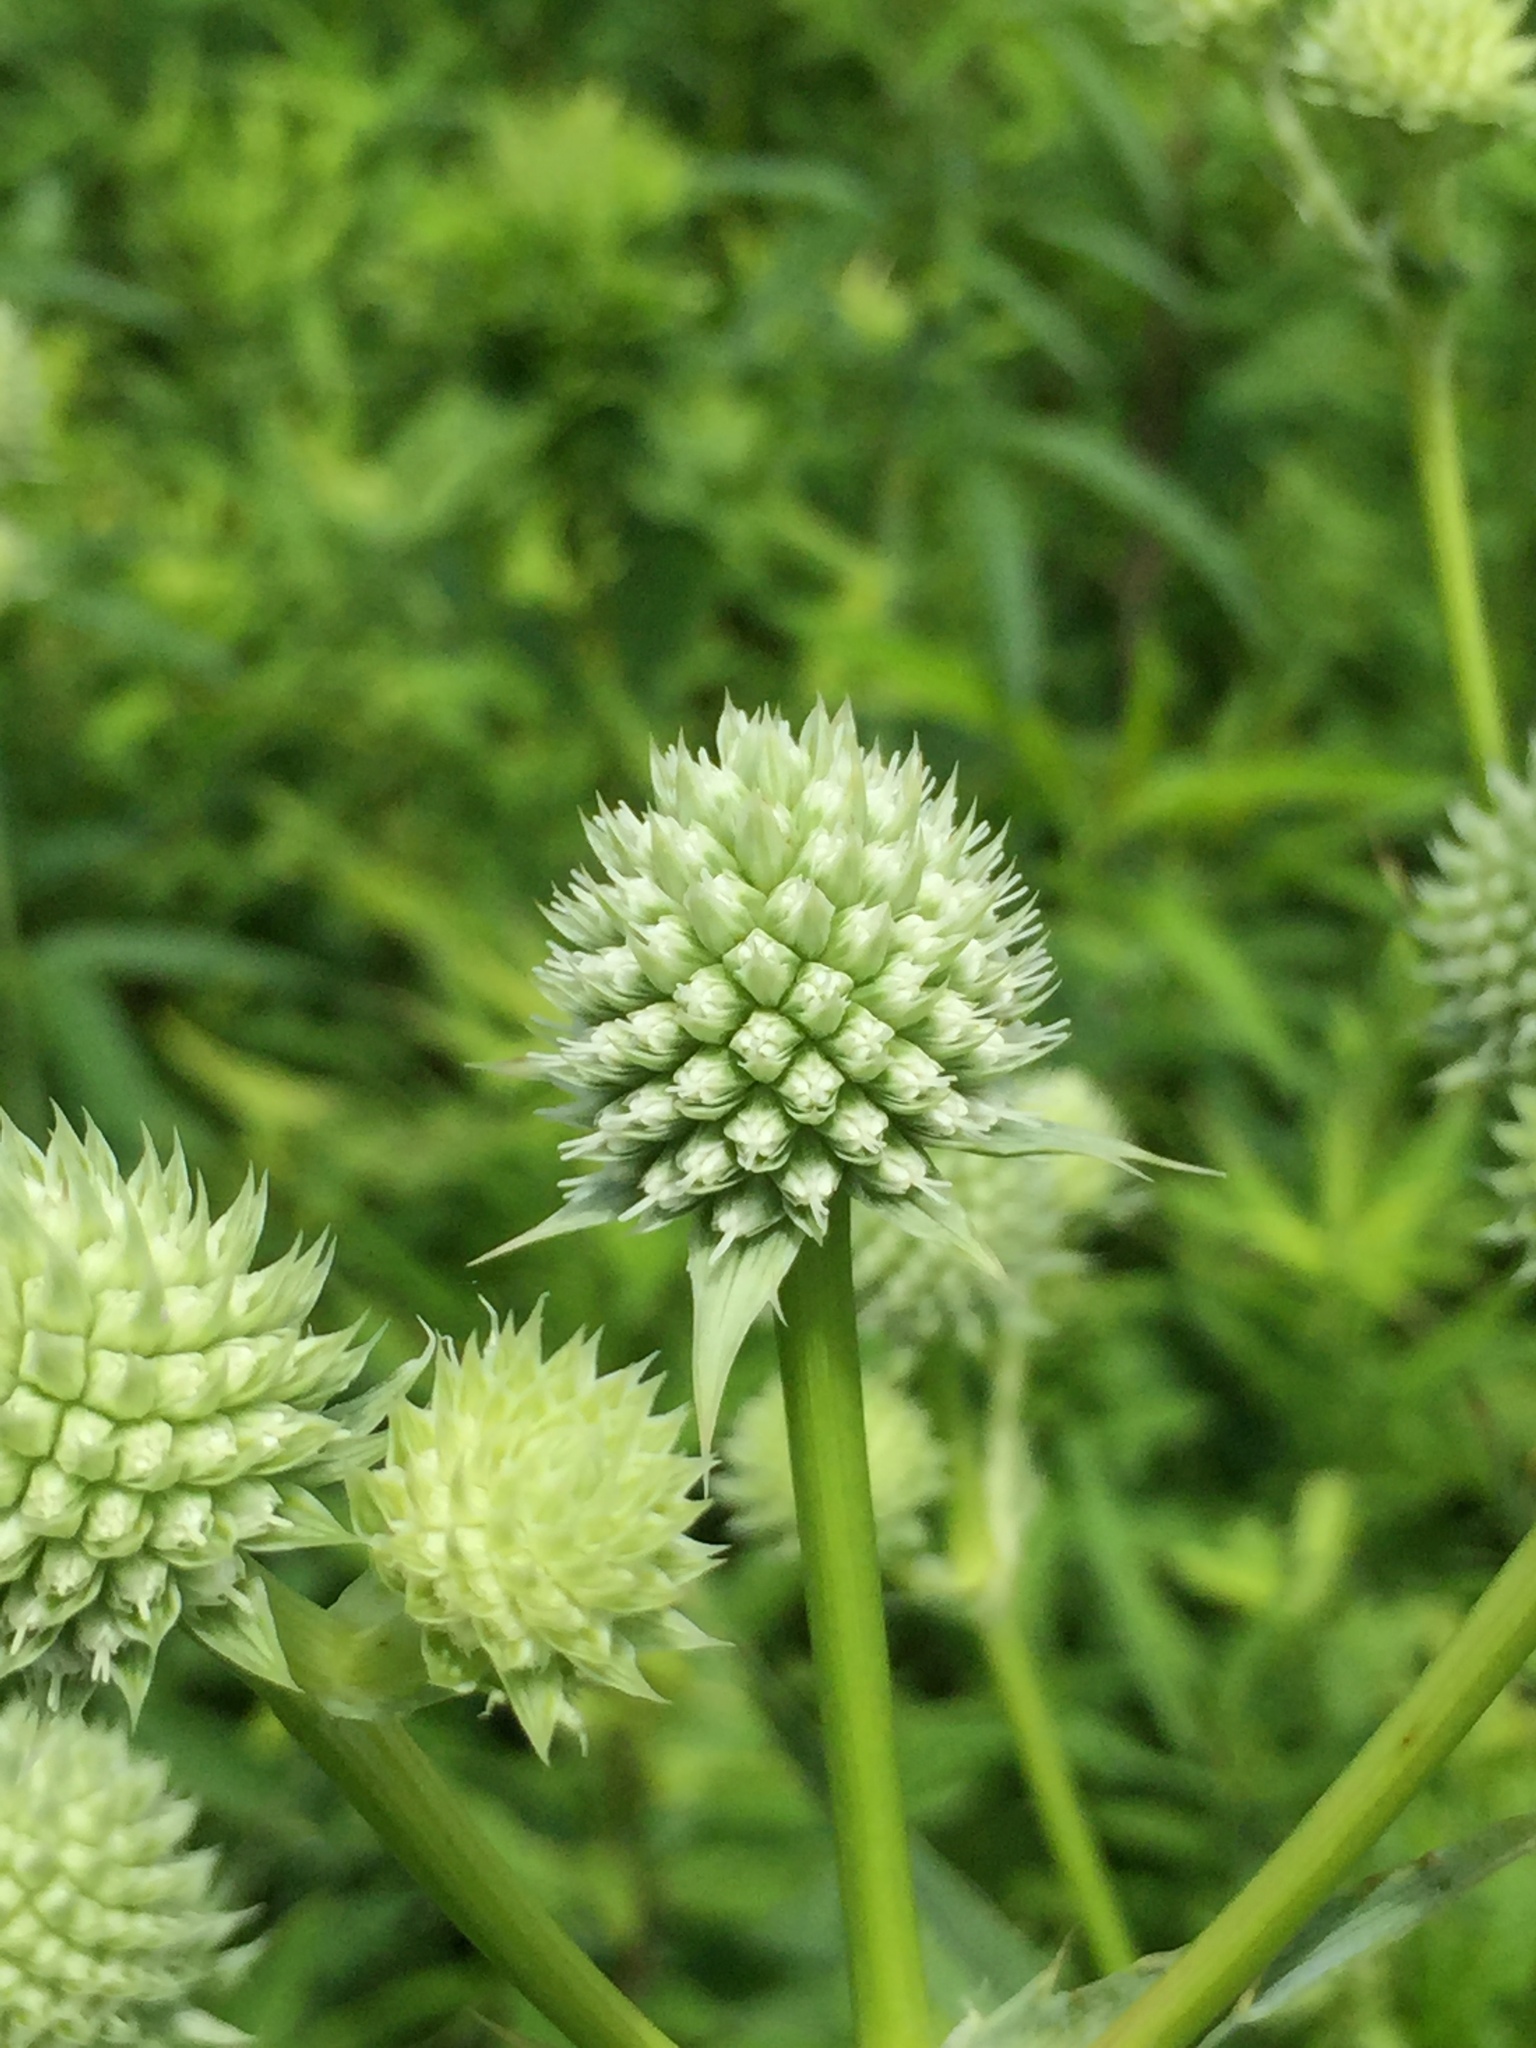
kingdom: Plantae
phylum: Tracheophyta
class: Magnoliopsida
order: Apiales
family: Apiaceae
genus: Eryngium
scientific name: Eryngium yuccifolium
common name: Button eryngo
